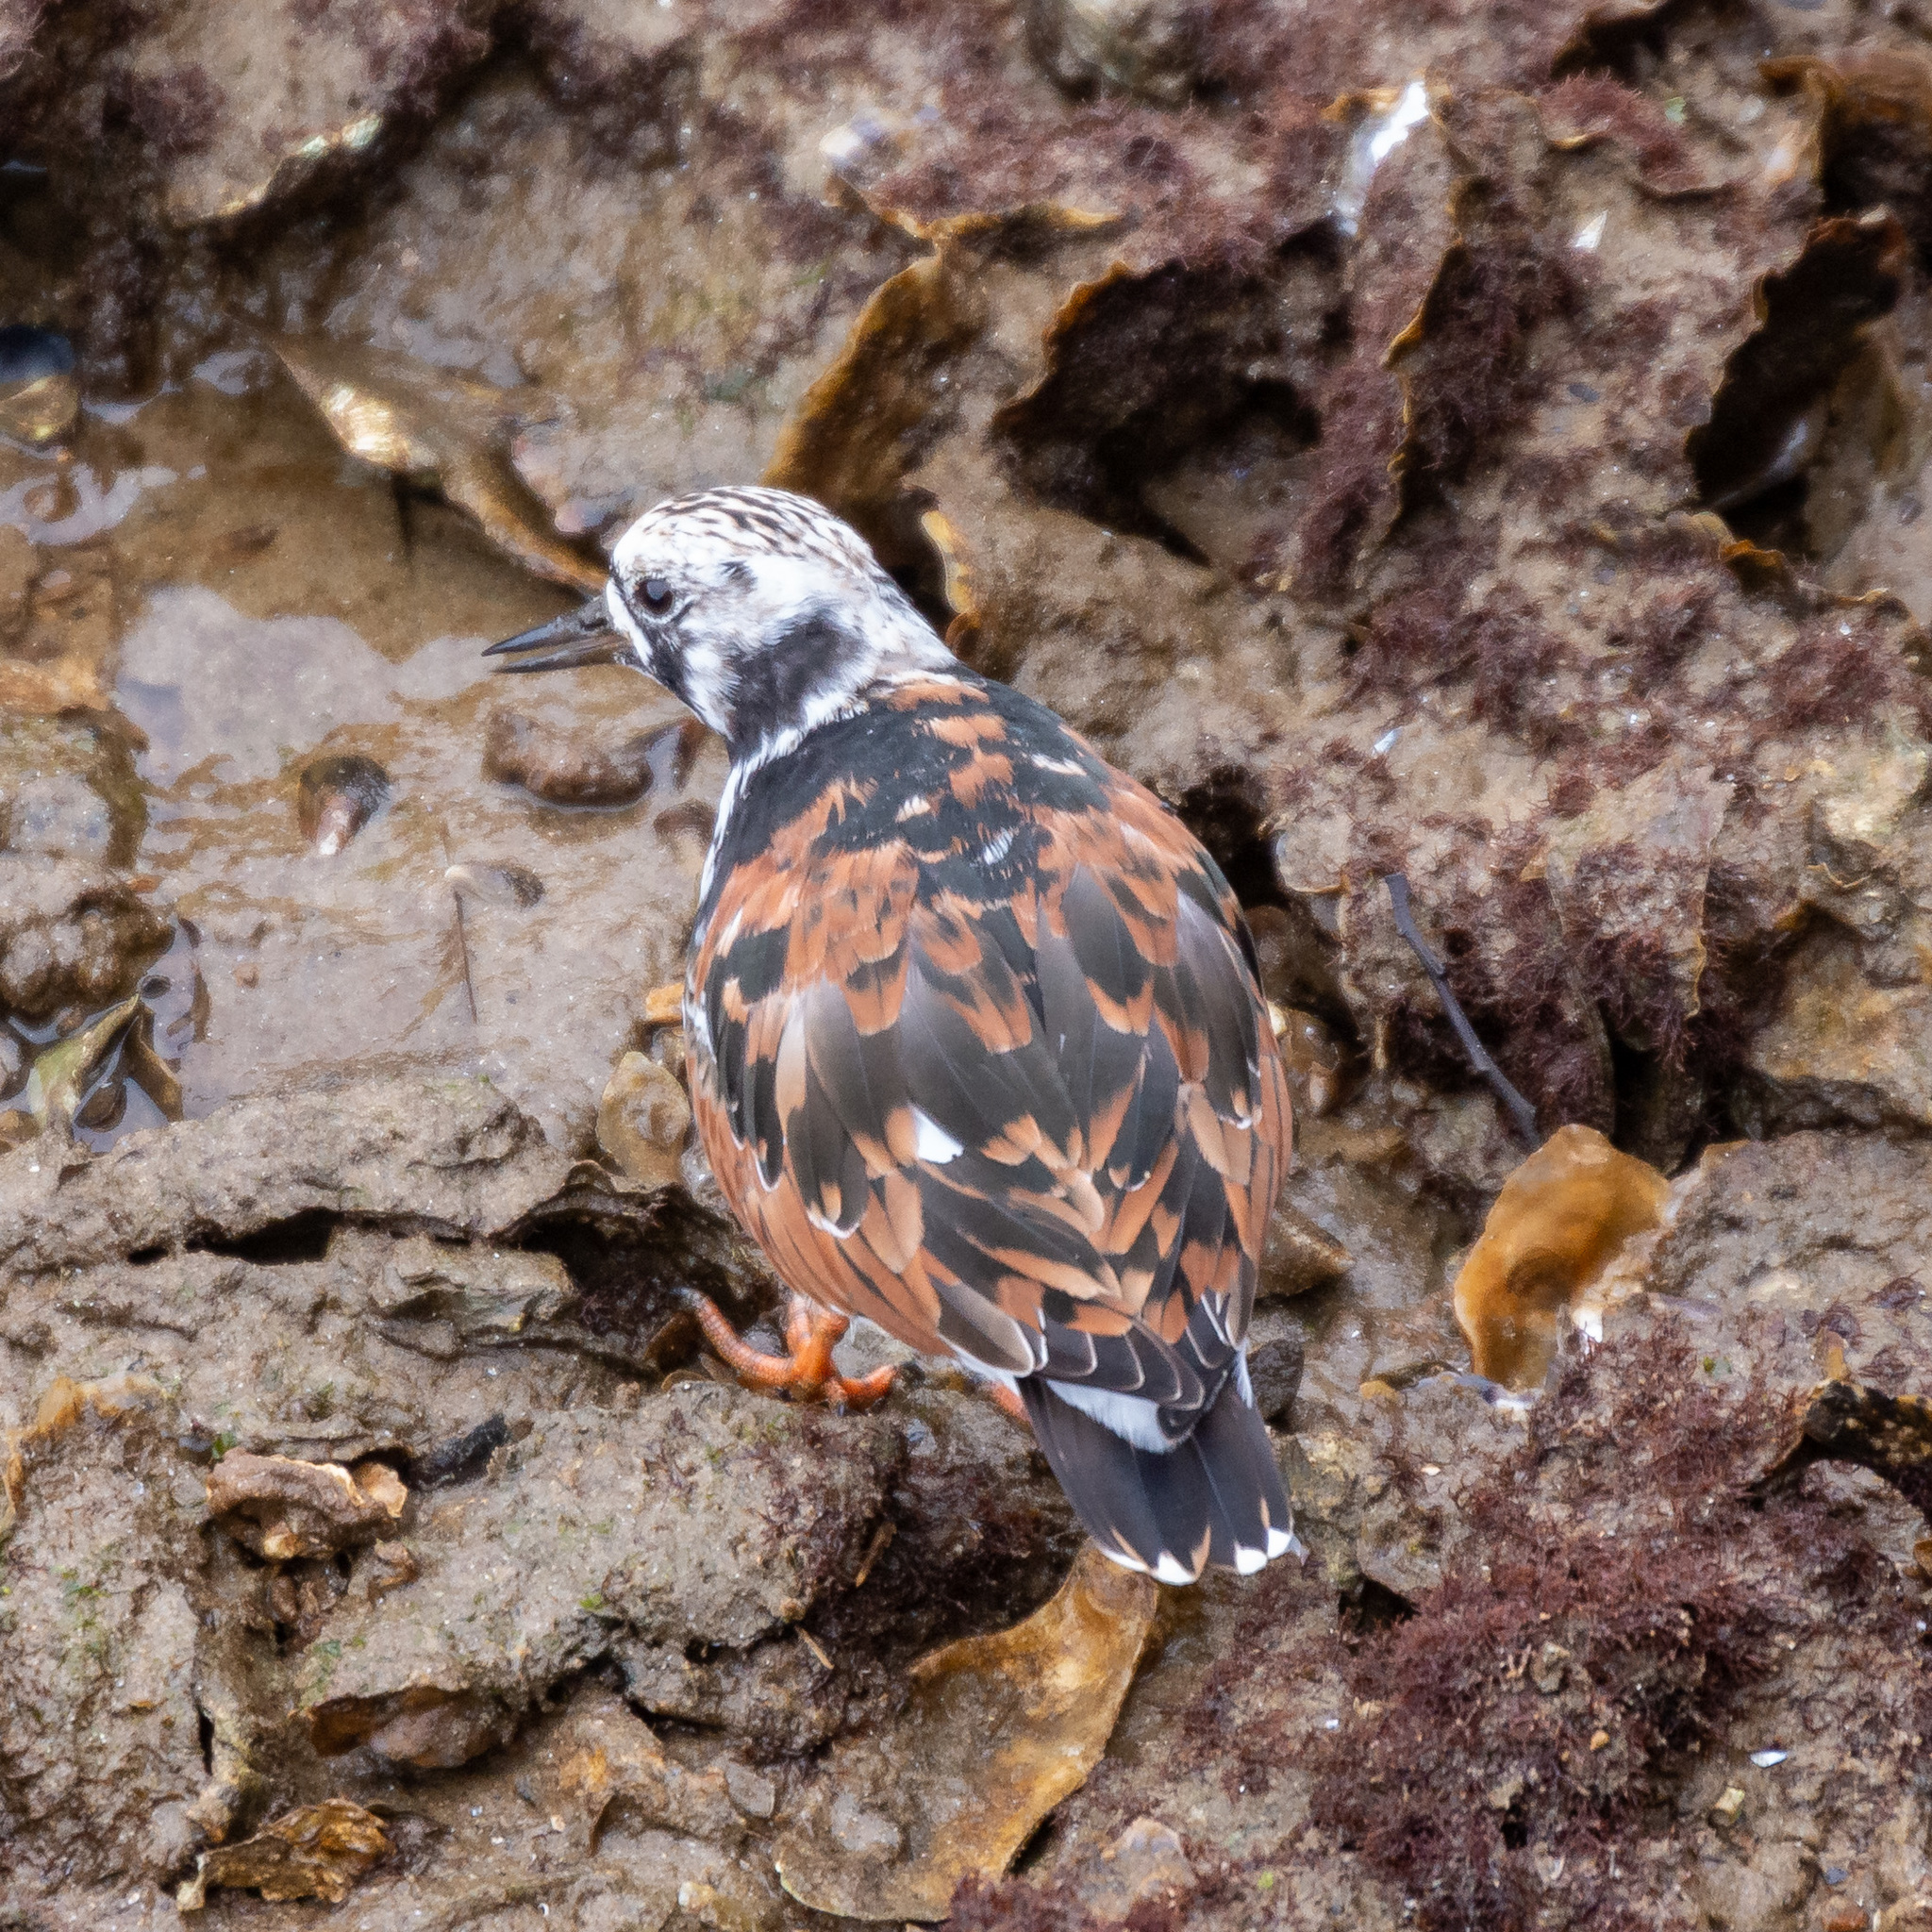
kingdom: Animalia
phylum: Chordata
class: Aves
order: Charadriiformes
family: Scolopacidae
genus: Arenaria
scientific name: Arenaria interpres
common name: Ruddy turnstone
